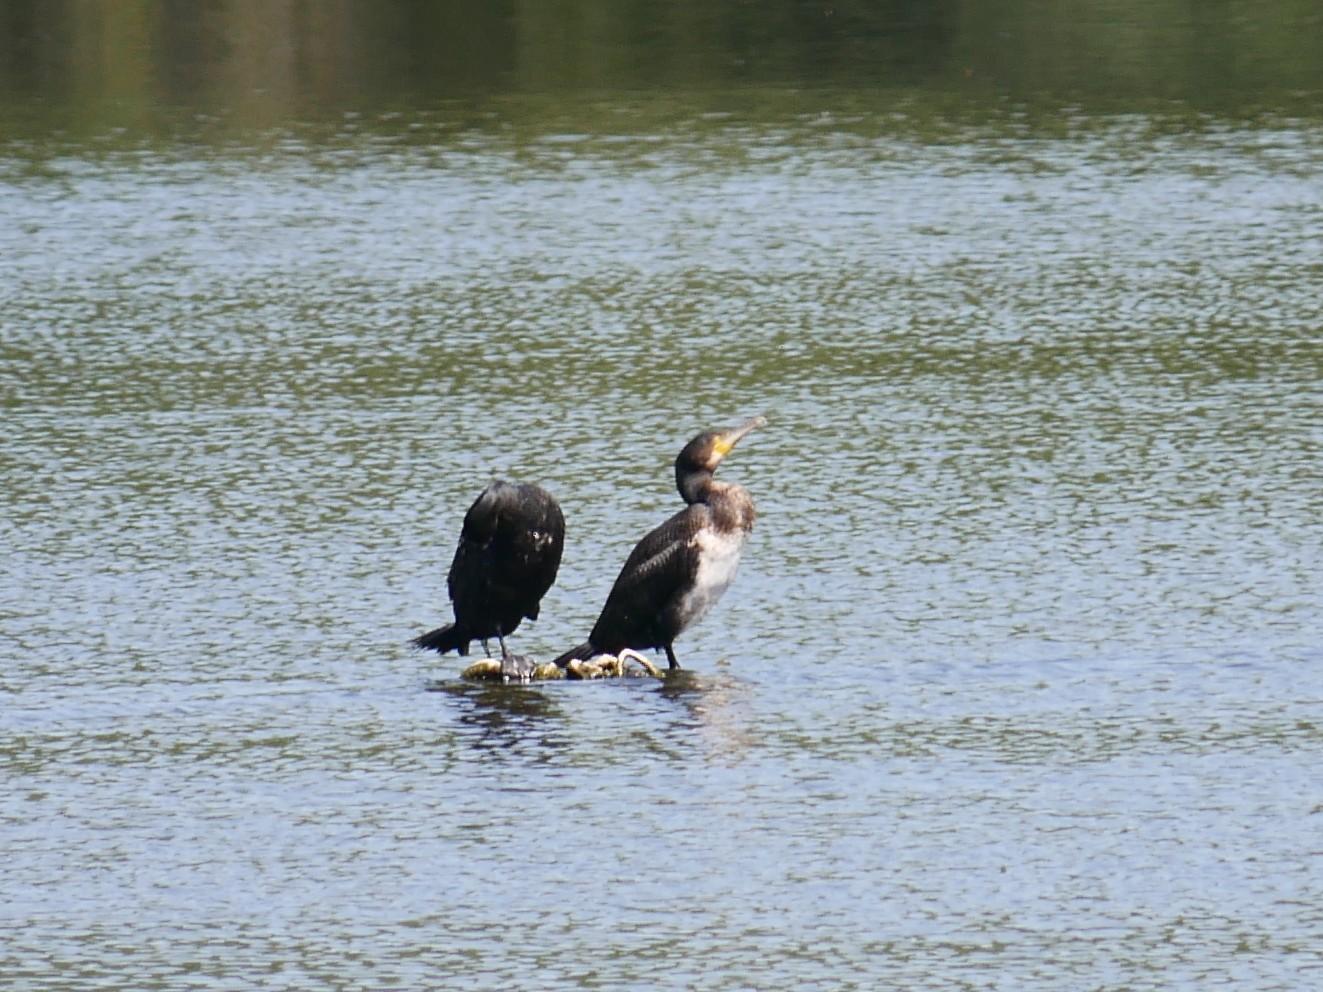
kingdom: Animalia
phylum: Chordata
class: Aves
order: Suliformes
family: Phalacrocoracidae
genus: Phalacrocorax
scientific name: Phalacrocorax carbo
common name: Great cormorant
